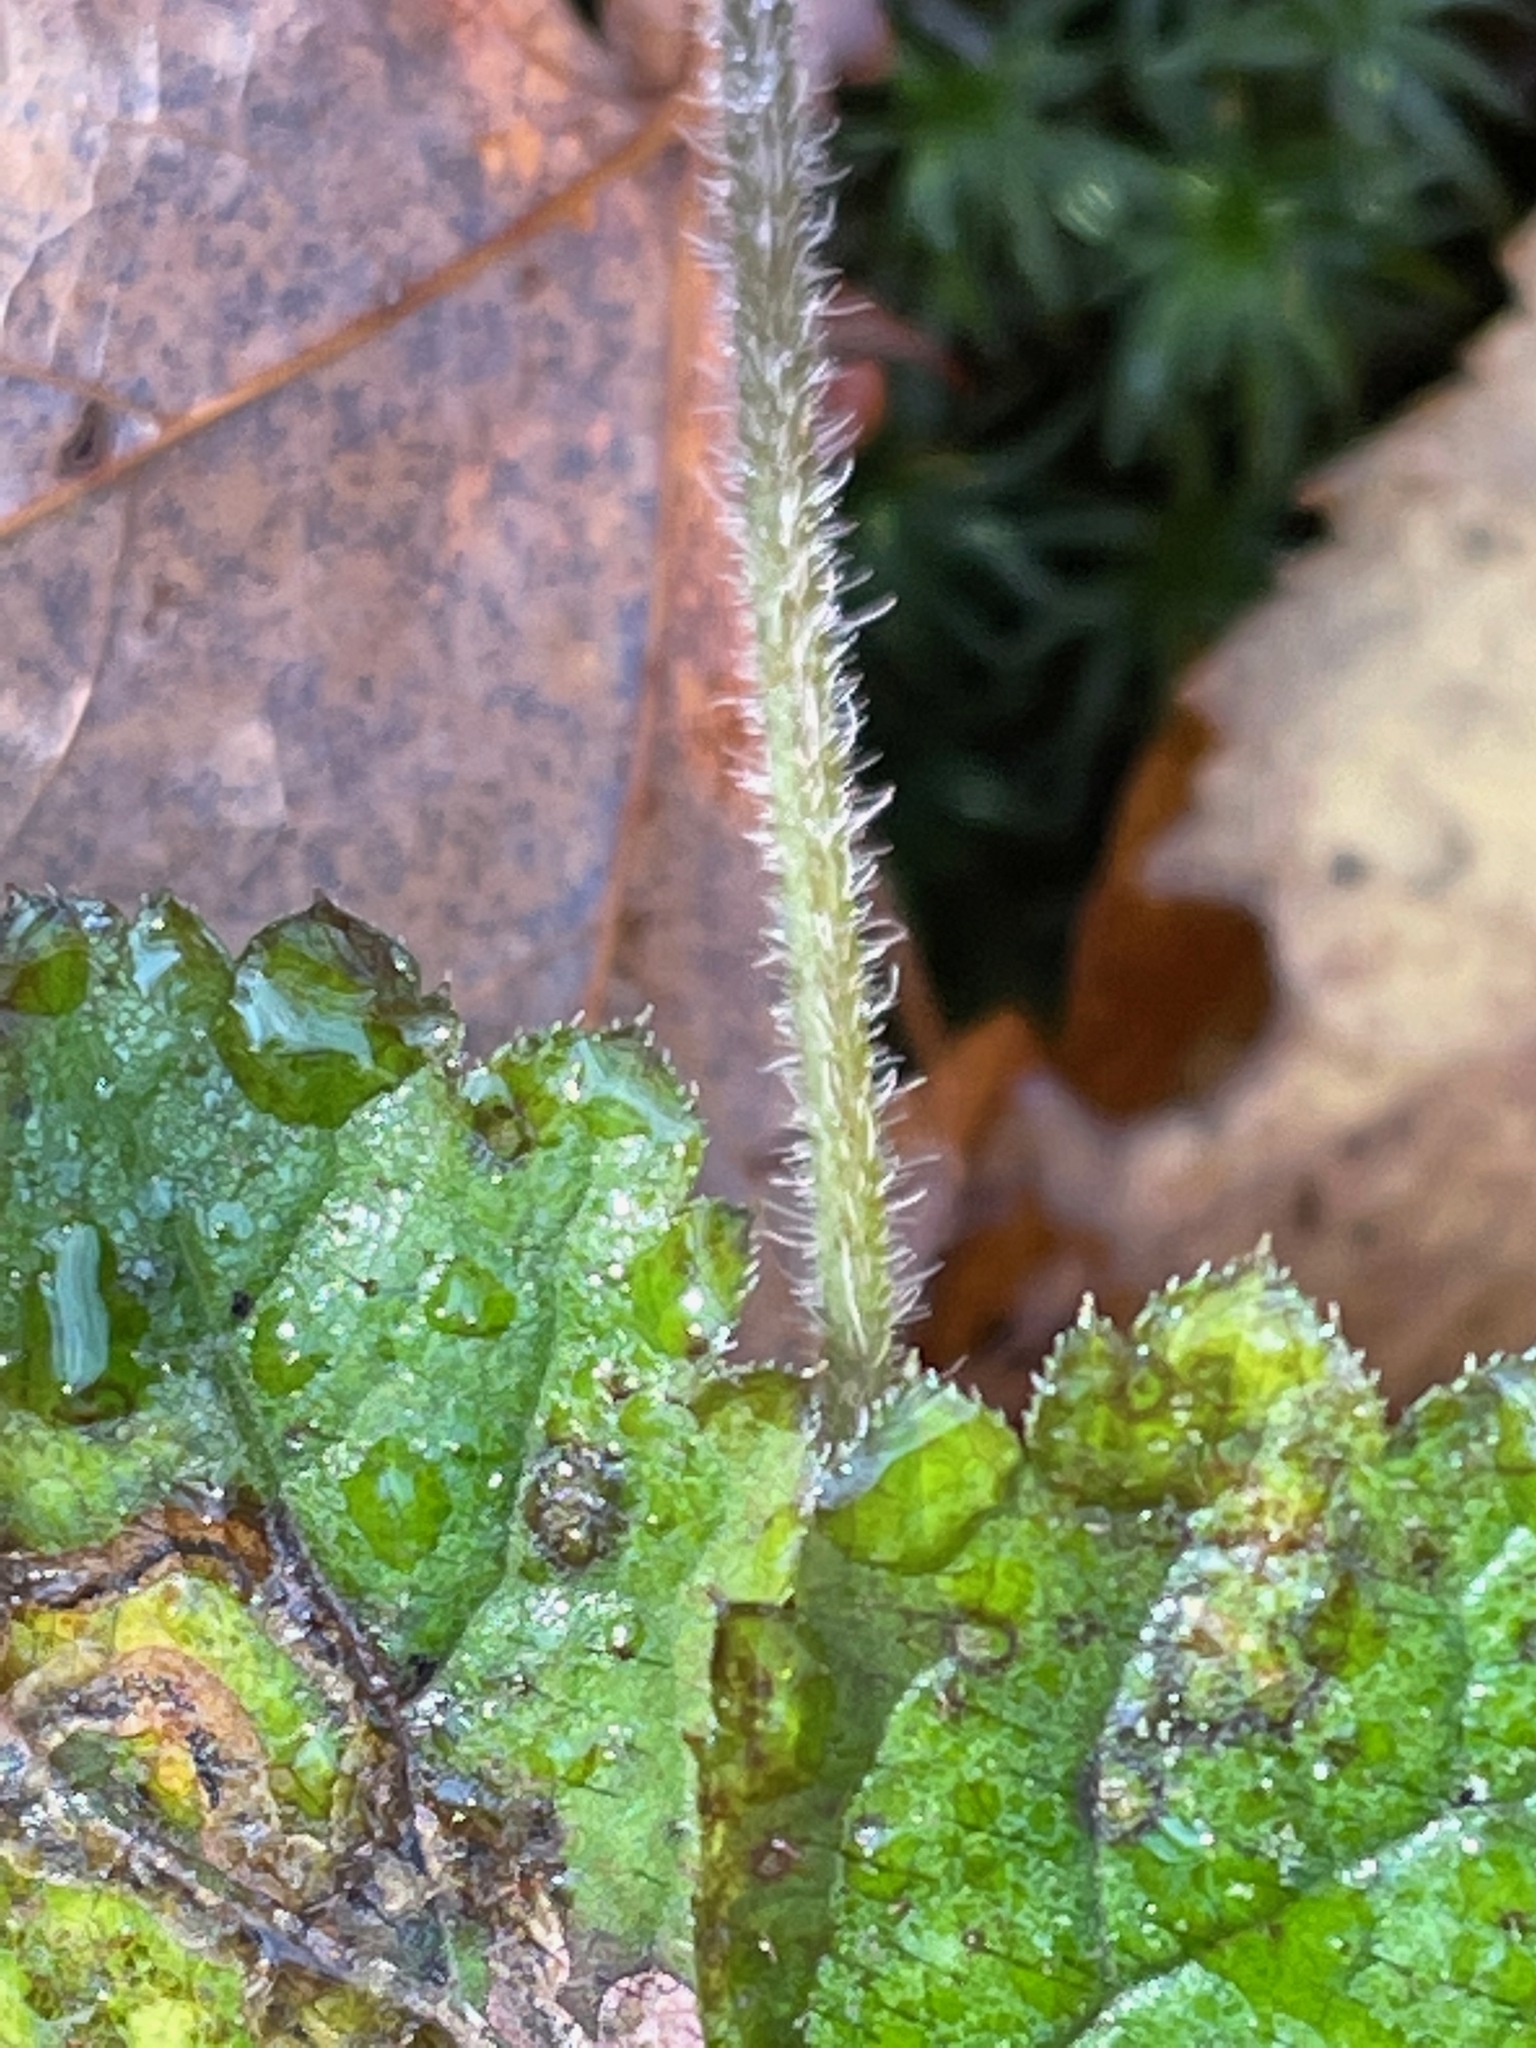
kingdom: Plantae
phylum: Tracheophyta
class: Magnoliopsida
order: Saxifragales
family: Saxifragaceae
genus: Tiarella
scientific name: Tiarella stolonifera
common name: Stoloniferous foamflower
